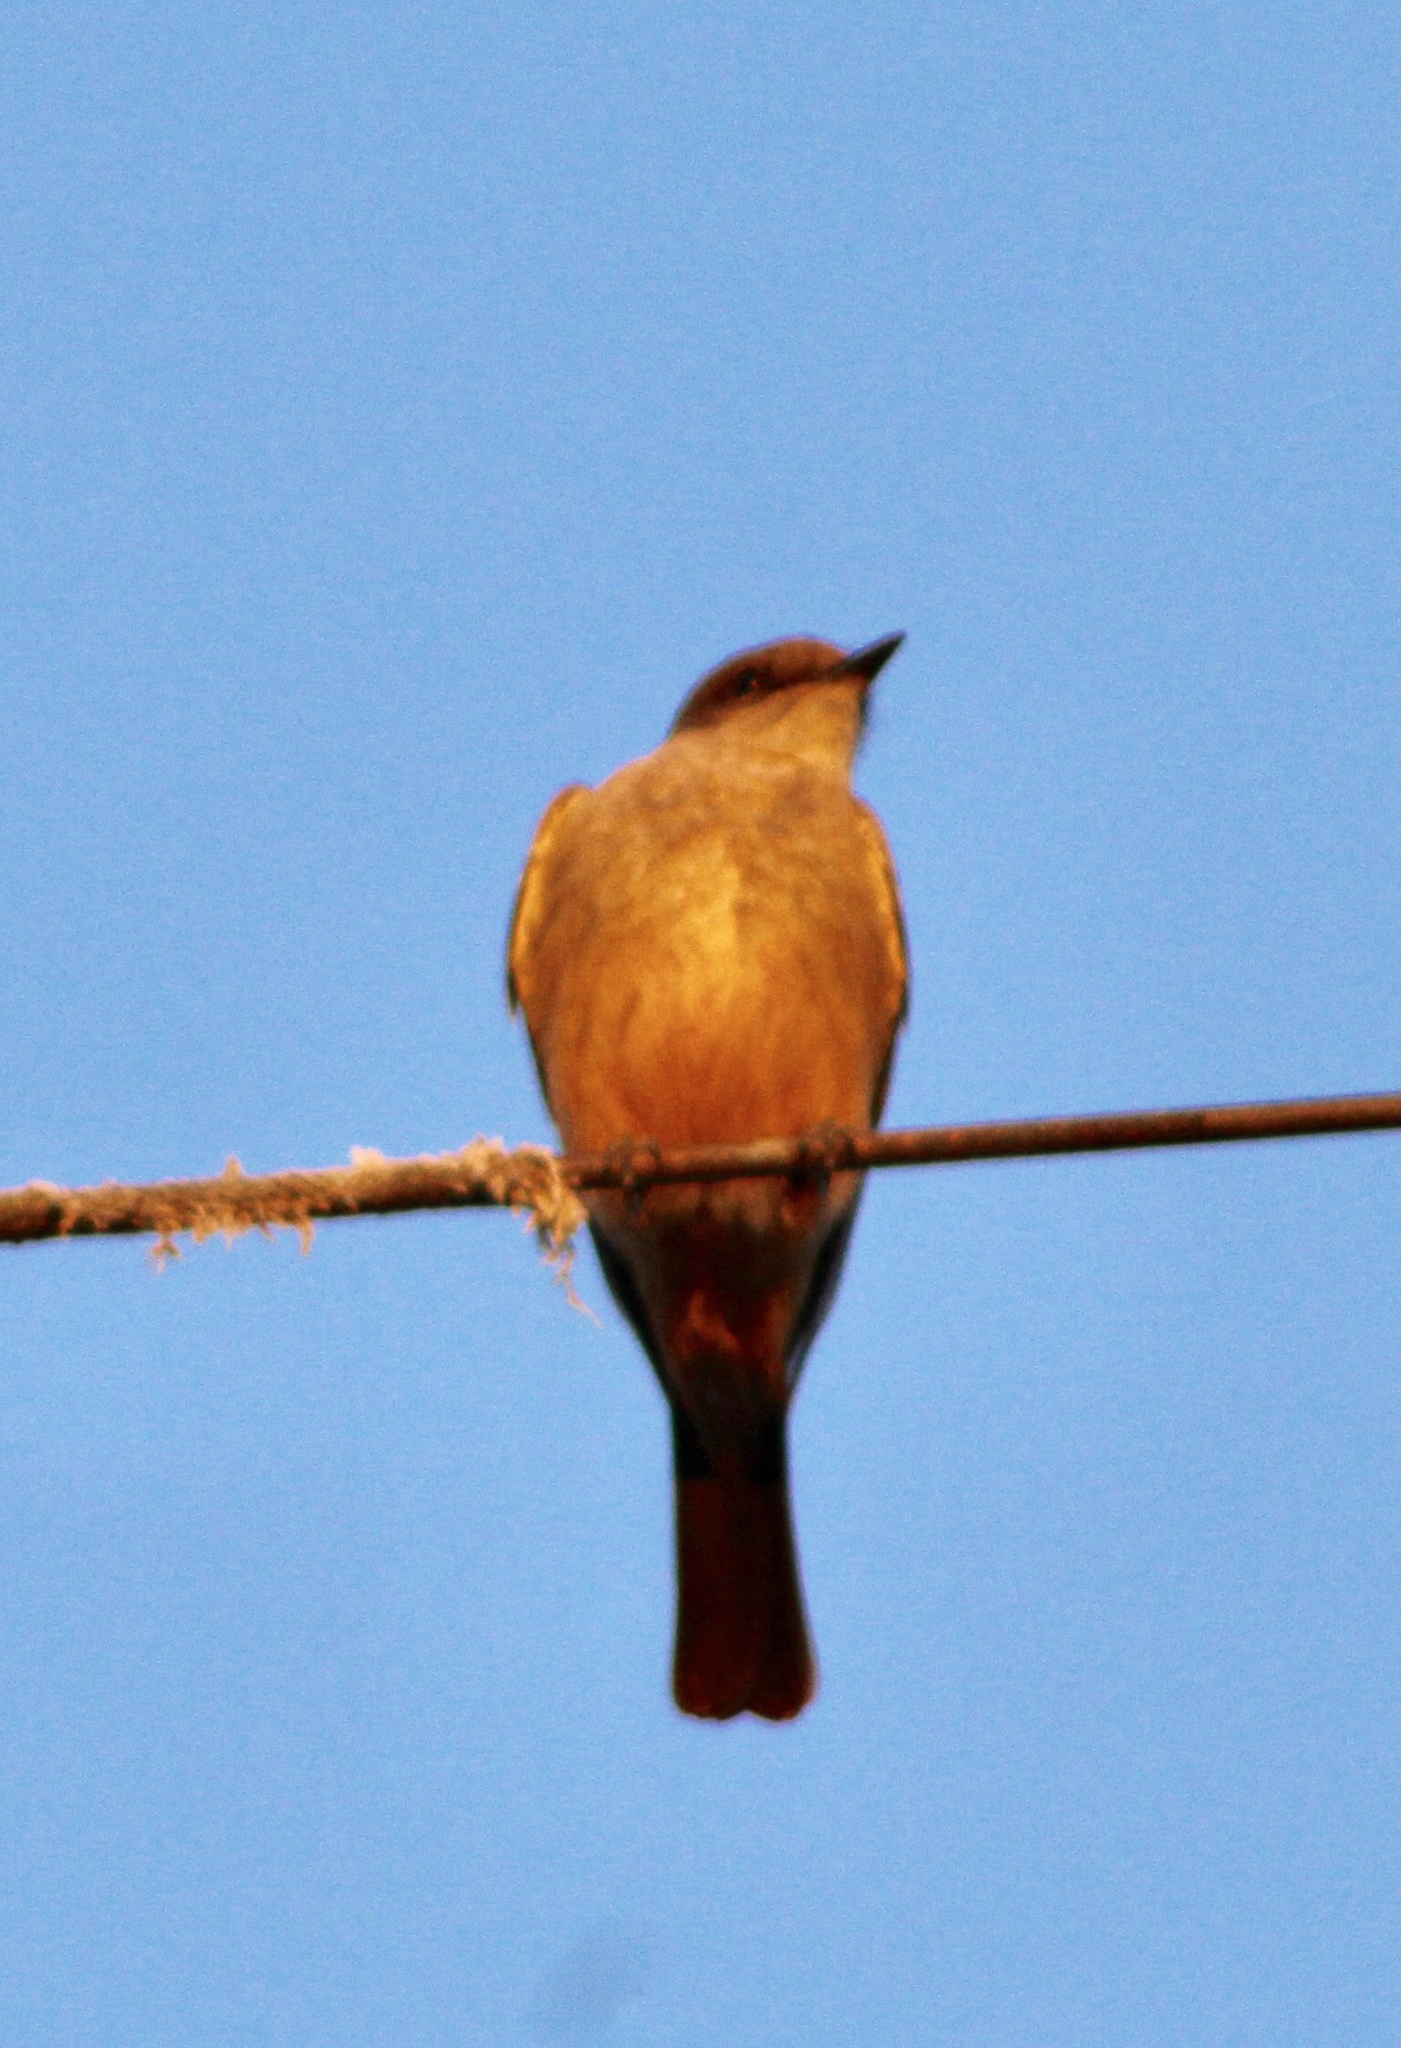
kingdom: Animalia
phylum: Chordata
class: Aves
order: Passeriformes
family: Tyrannidae
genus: Sayornis
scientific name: Sayornis saya
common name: Say's phoebe
